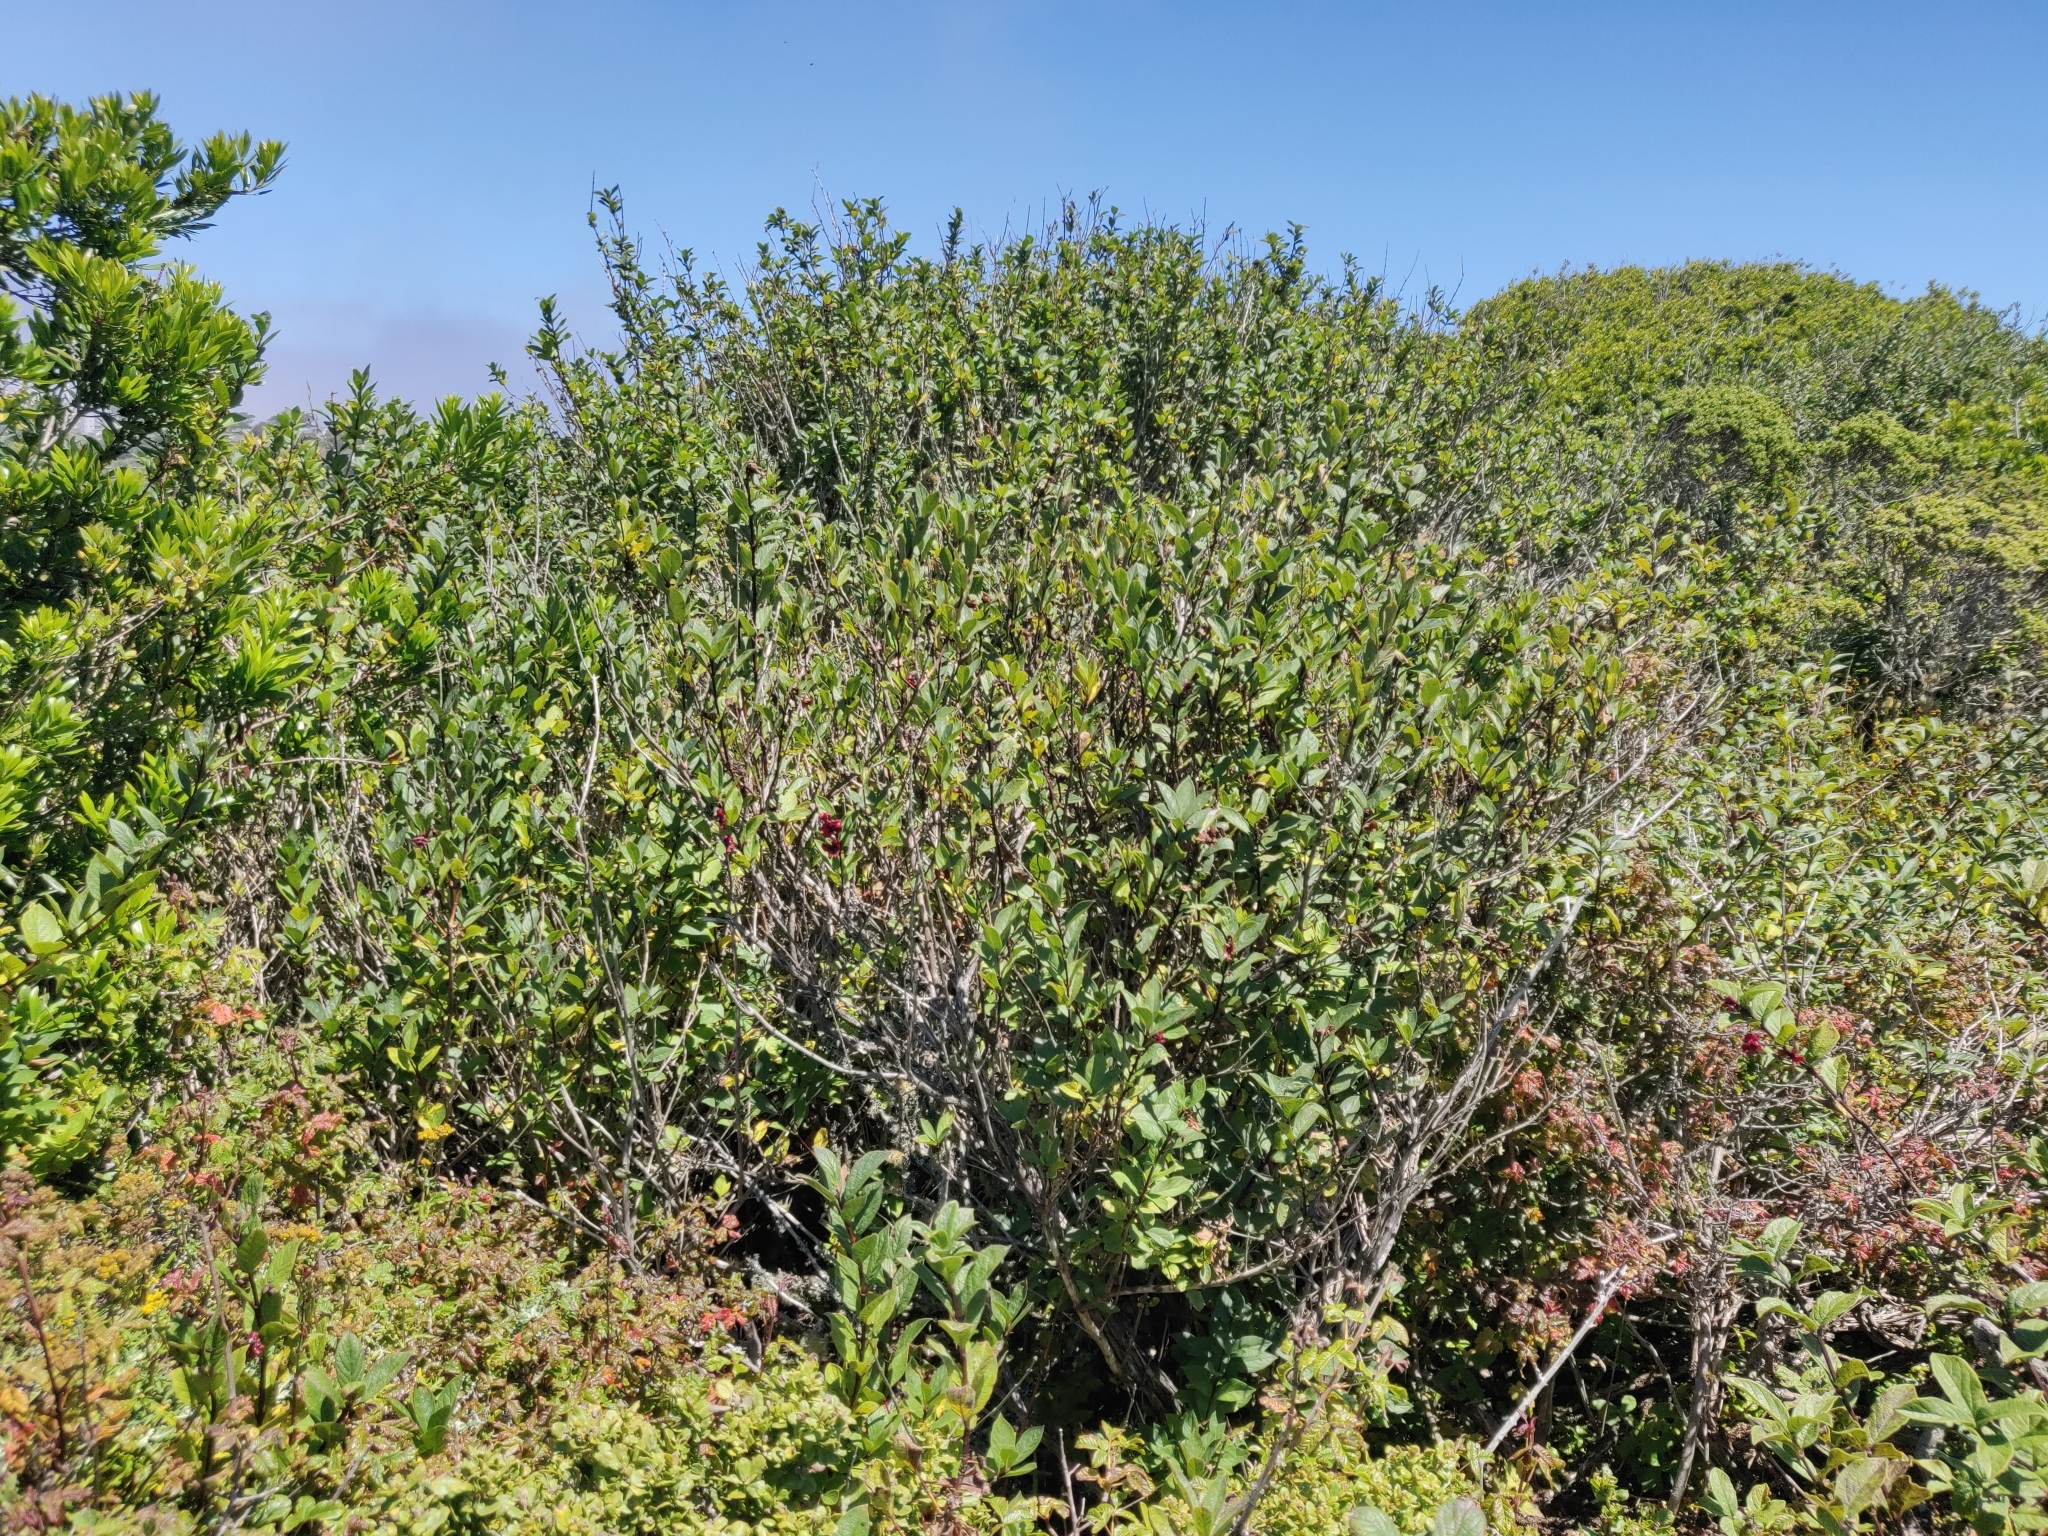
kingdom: Plantae
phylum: Tracheophyta
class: Magnoliopsida
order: Dipsacales
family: Caprifoliaceae
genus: Lonicera
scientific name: Lonicera involucrata
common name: Californian honeysuckle
